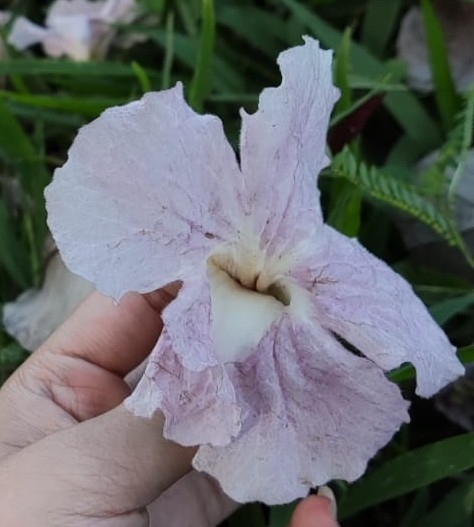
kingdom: Plantae
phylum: Tracheophyta
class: Magnoliopsida
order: Lamiales
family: Bignoniaceae
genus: Tabebuia
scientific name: Tabebuia heterophylla
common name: White cedar
